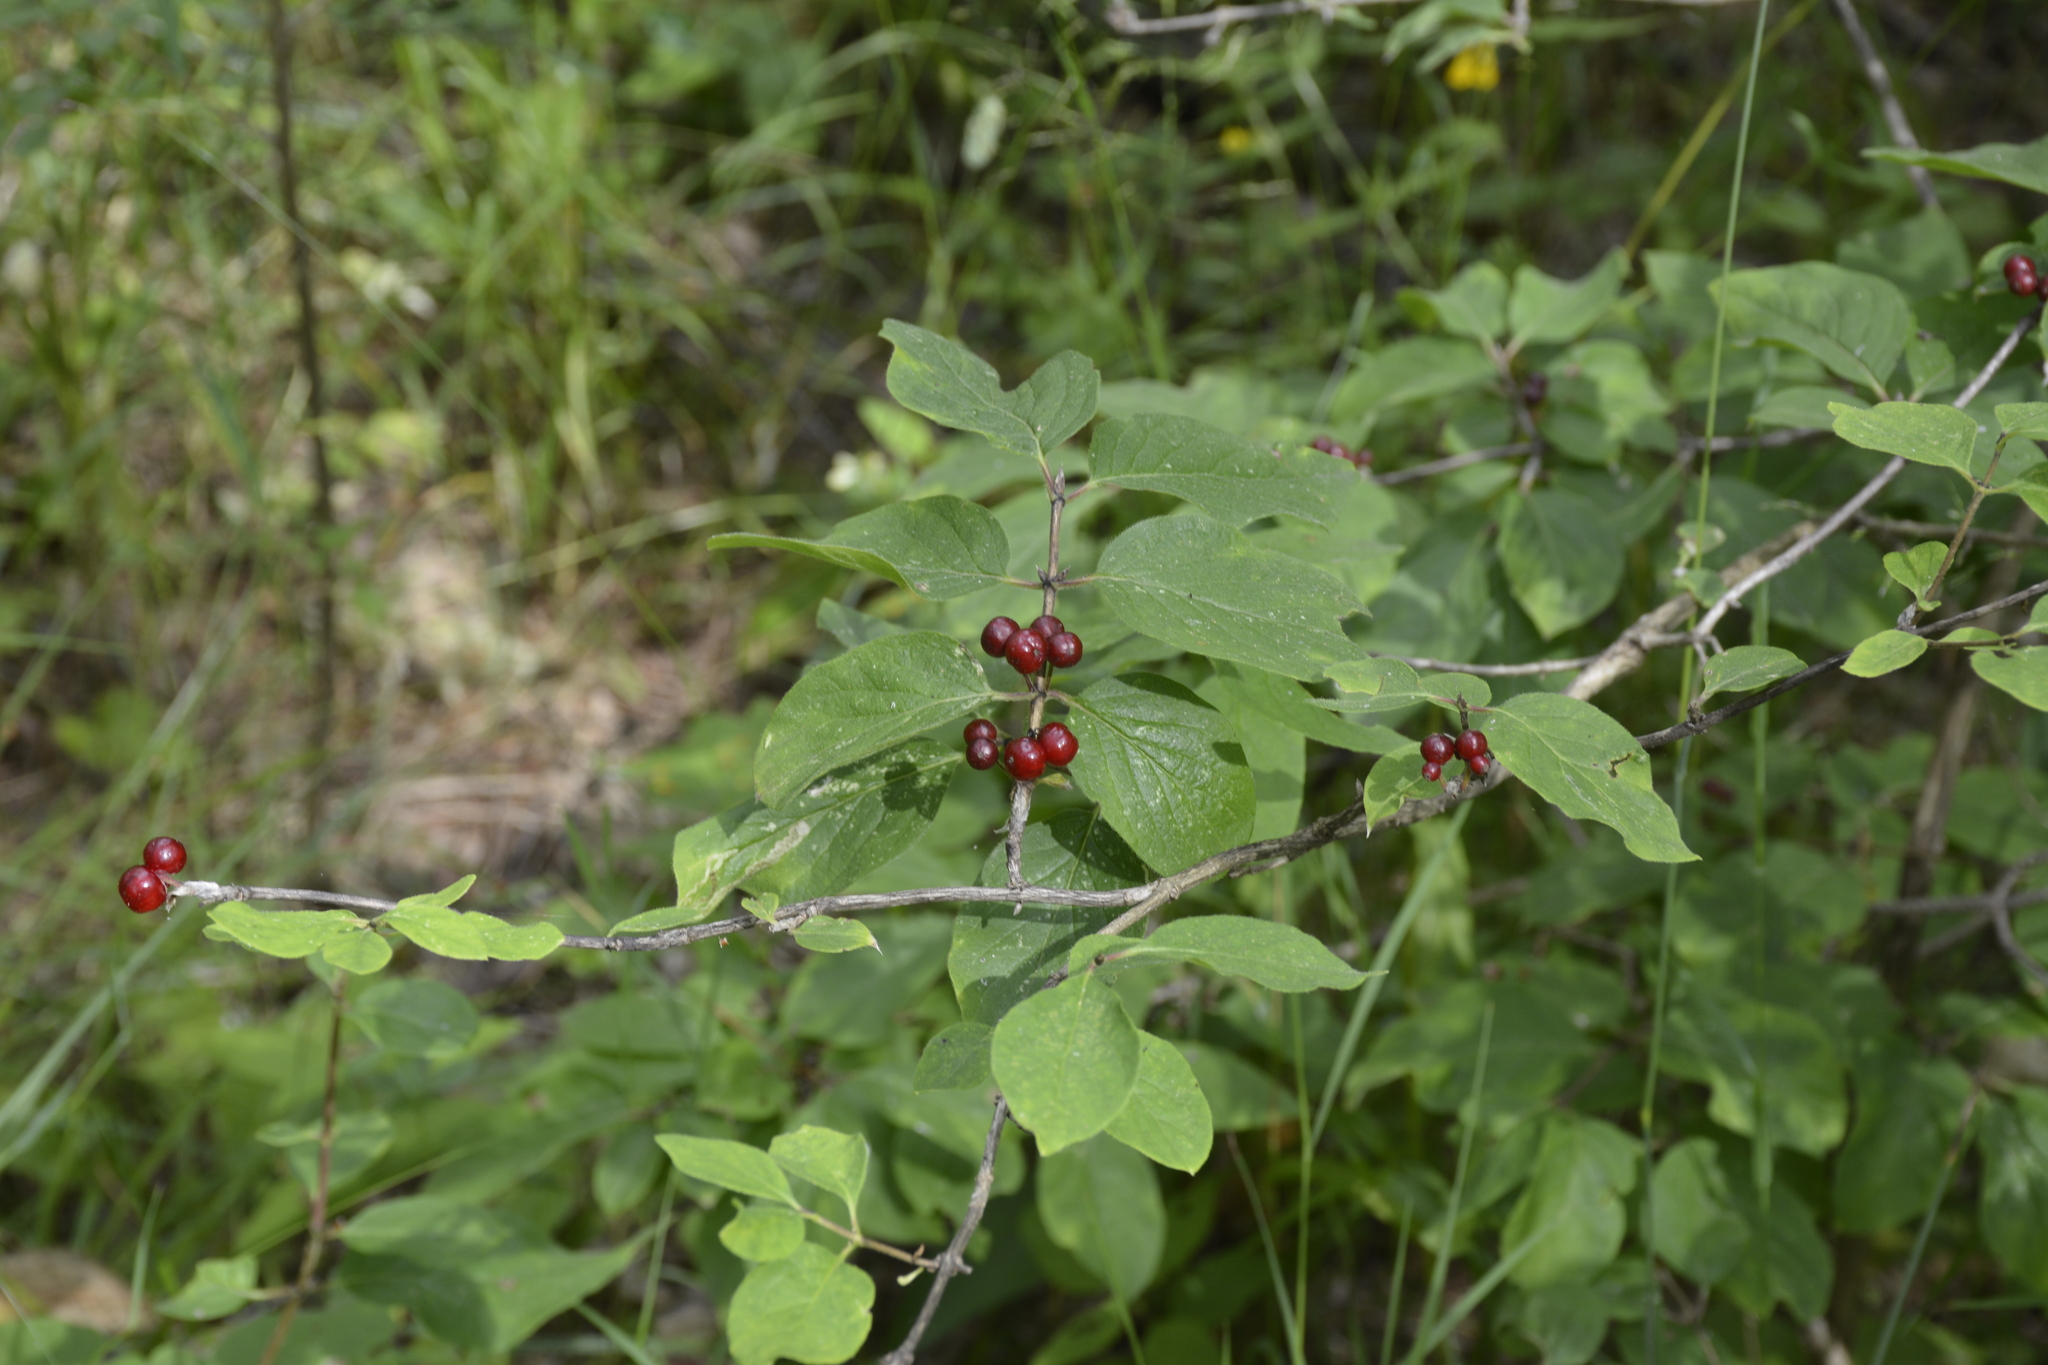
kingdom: Plantae
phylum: Tracheophyta
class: Magnoliopsida
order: Dipsacales
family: Caprifoliaceae
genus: Lonicera
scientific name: Lonicera xylosteum
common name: Fly honeysuckle
